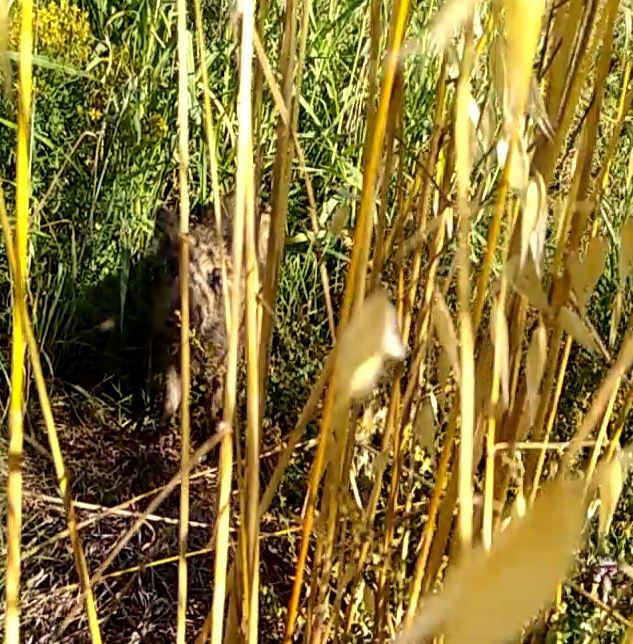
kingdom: Animalia
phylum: Chordata
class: Mammalia
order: Artiodactyla
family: Suidae
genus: Sus
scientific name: Sus scrofa
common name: Wild boar
